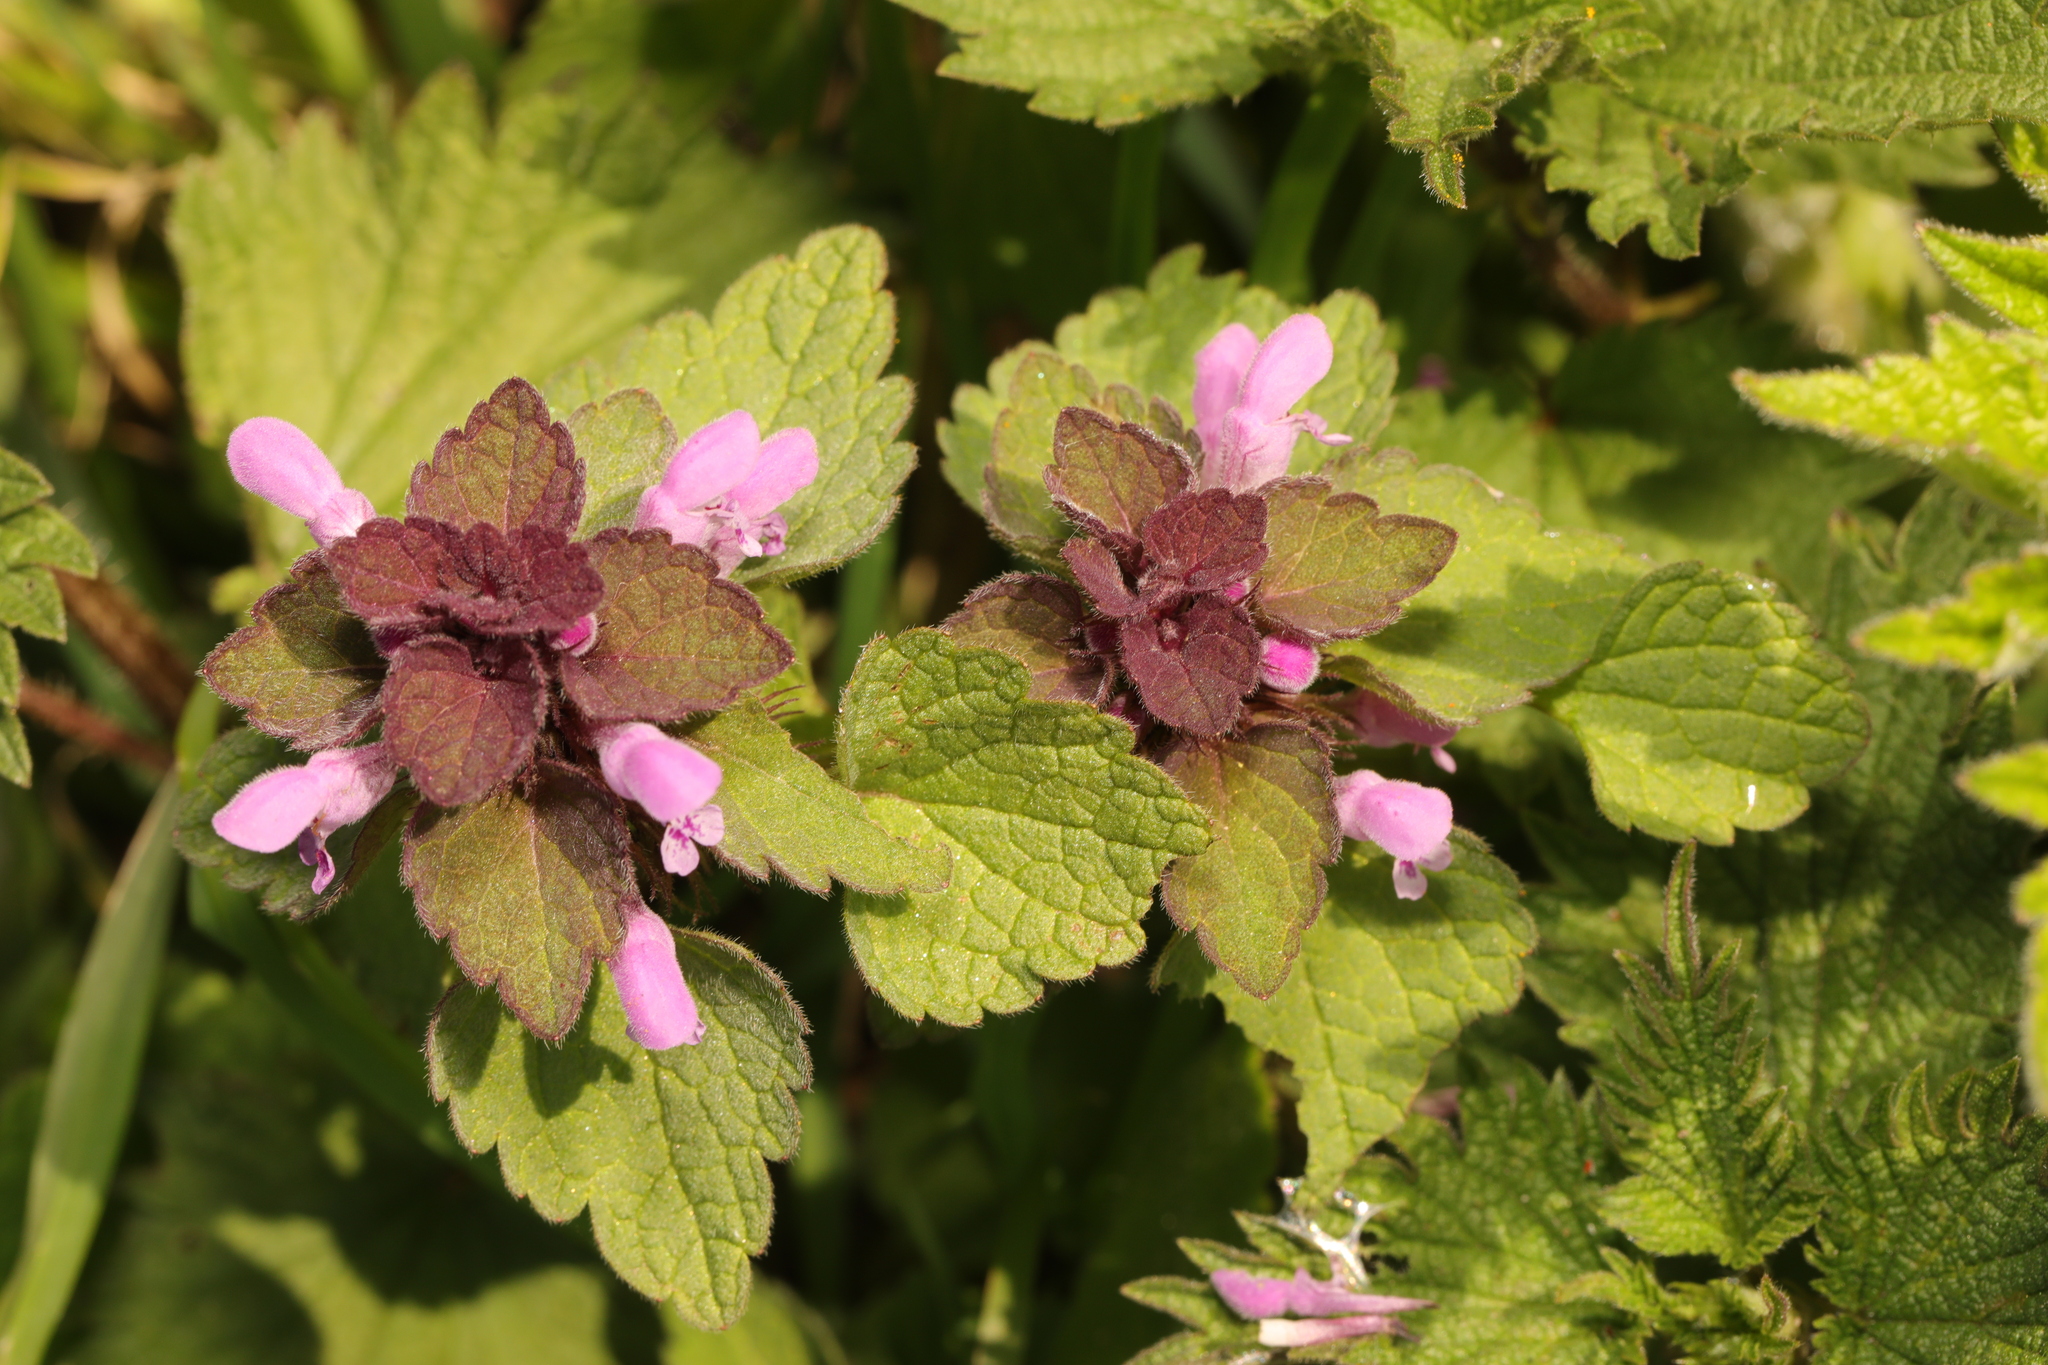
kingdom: Plantae
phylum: Tracheophyta
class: Magnoliopsida
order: Lamiales
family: Lamiaceae
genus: Lamium
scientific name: Lamium purpureum
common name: Red dead-nettle
